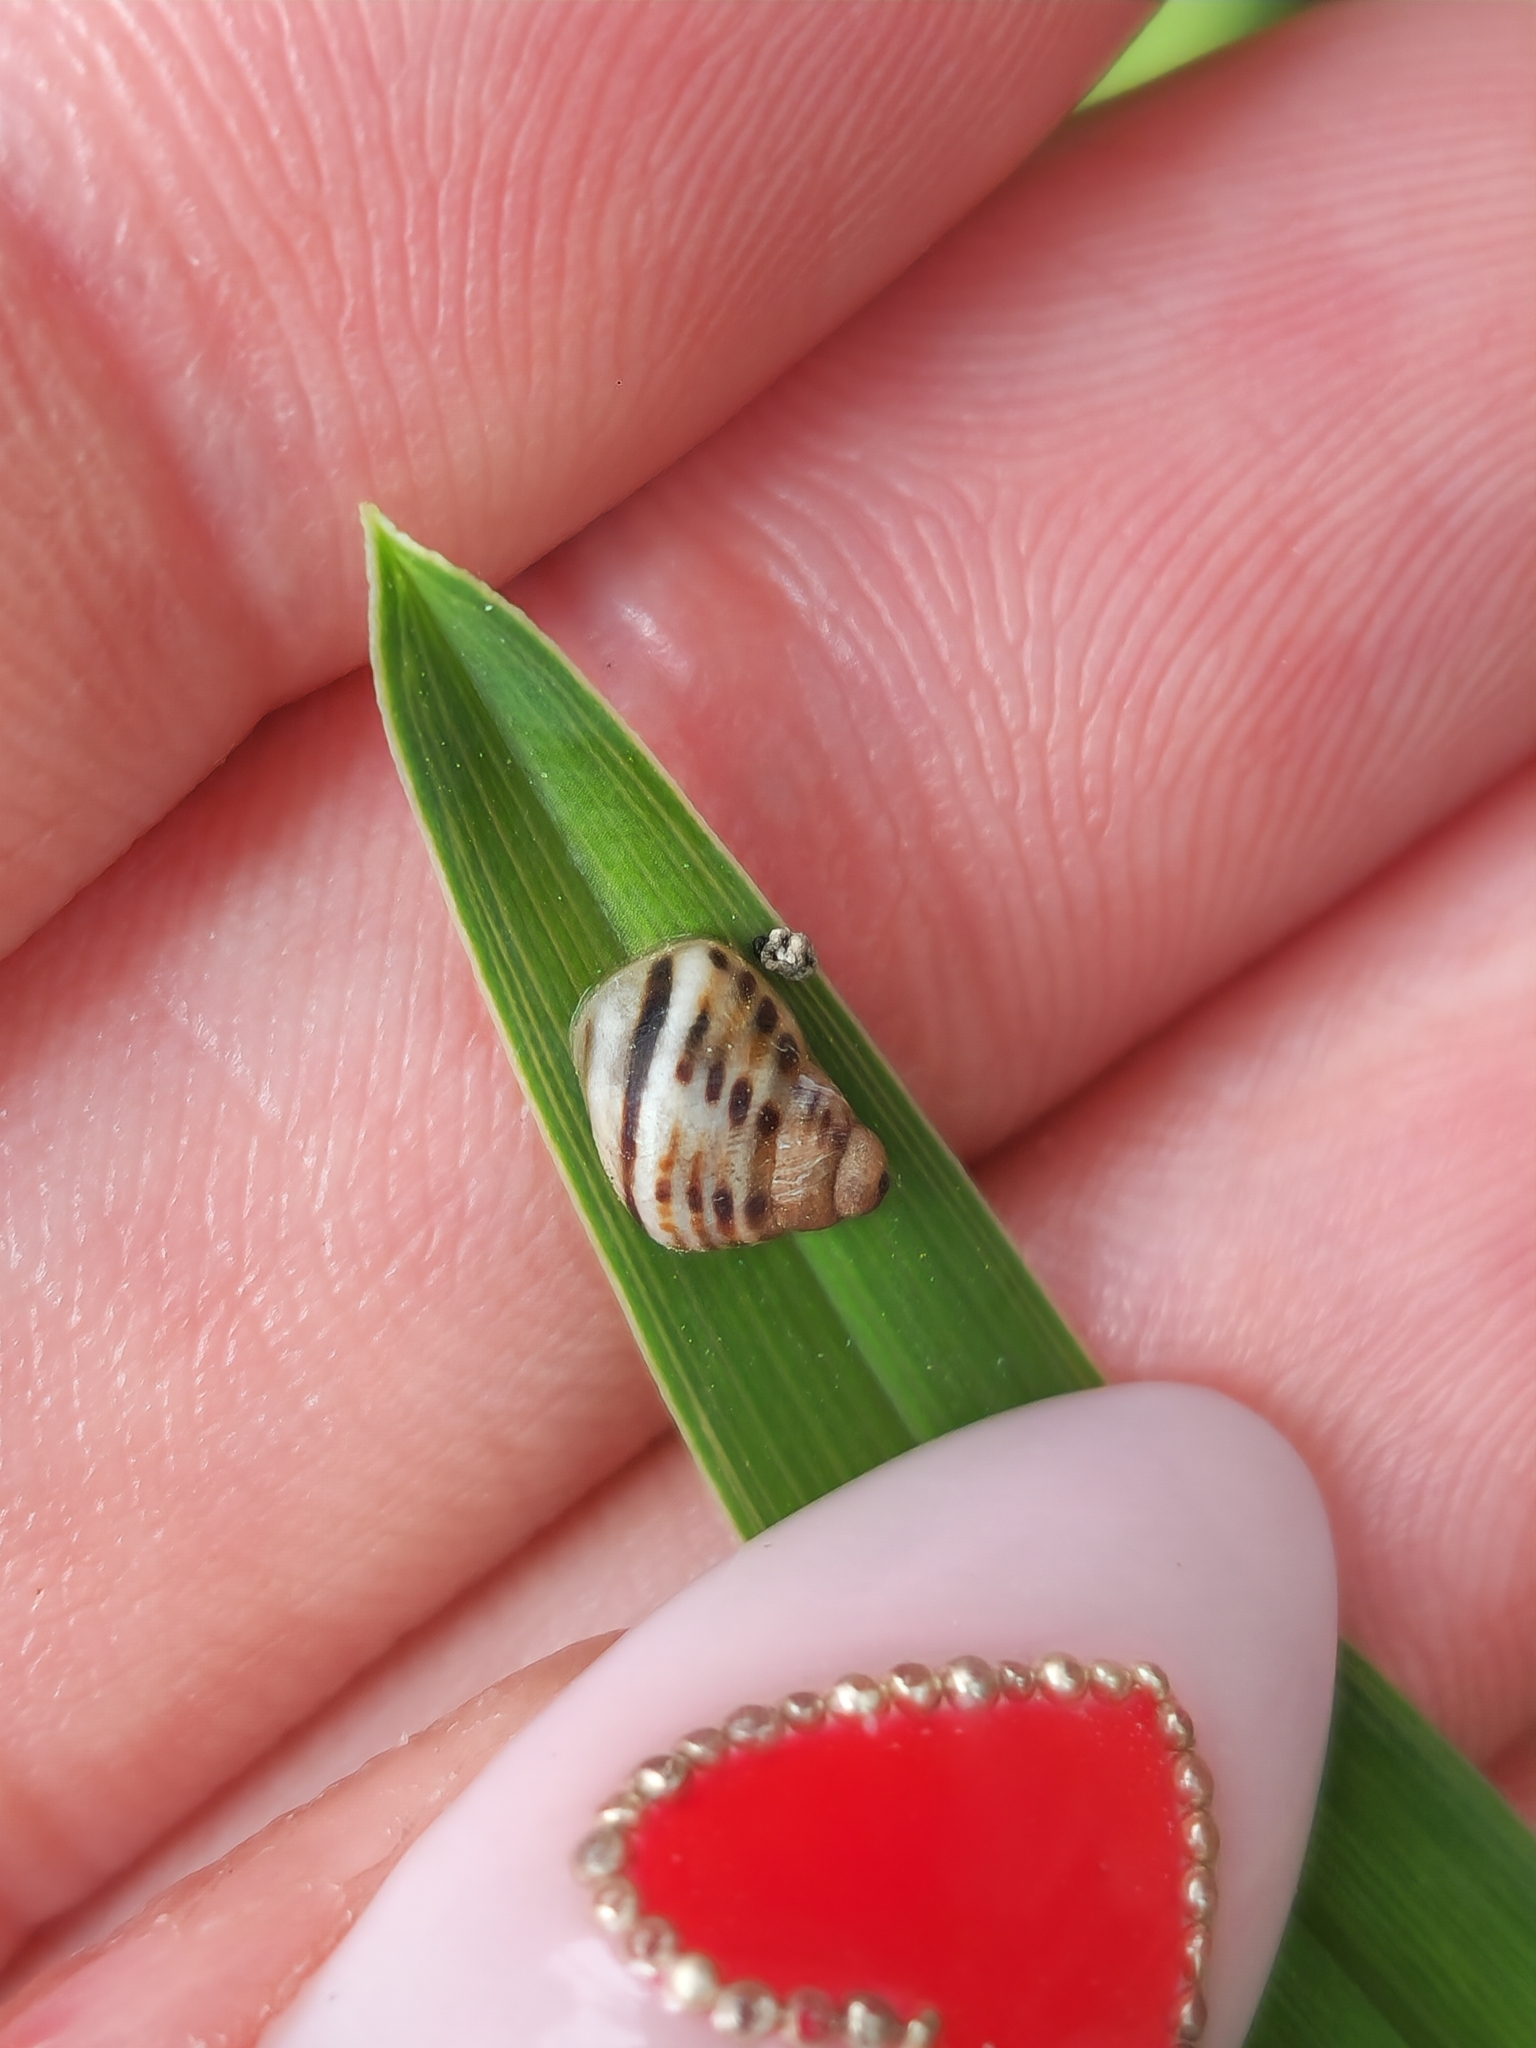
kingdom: Animalia
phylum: Mollusca
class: Gastropoda
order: Stylommatophora
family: Bulimulidae
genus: Drymaeus
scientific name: Drymaeus poecilus
